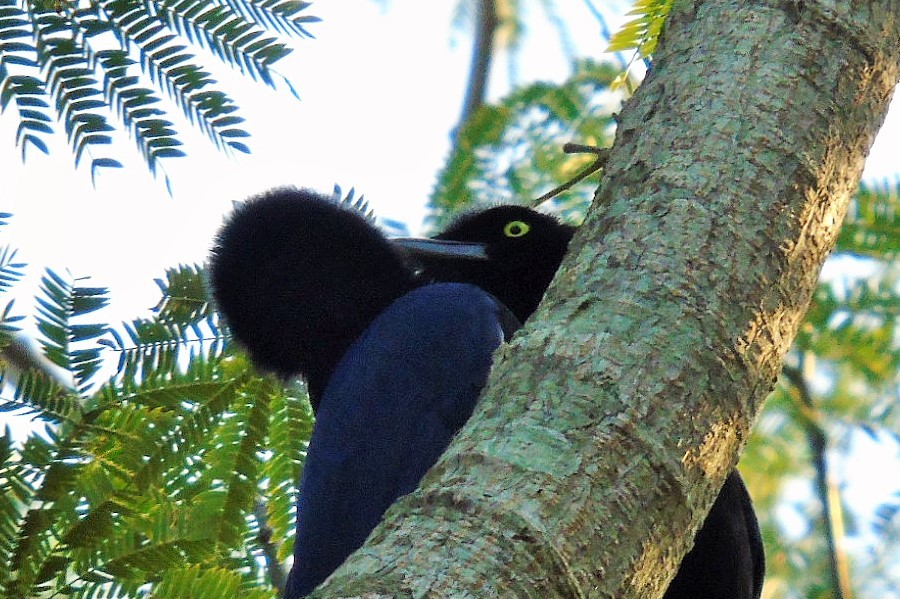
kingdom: Animalia
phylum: Chordata
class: Aves
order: Passeriformes
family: Corvidae
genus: Cyanocorax
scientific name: Cyanocorax beecheii
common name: Purplish-backed jay
